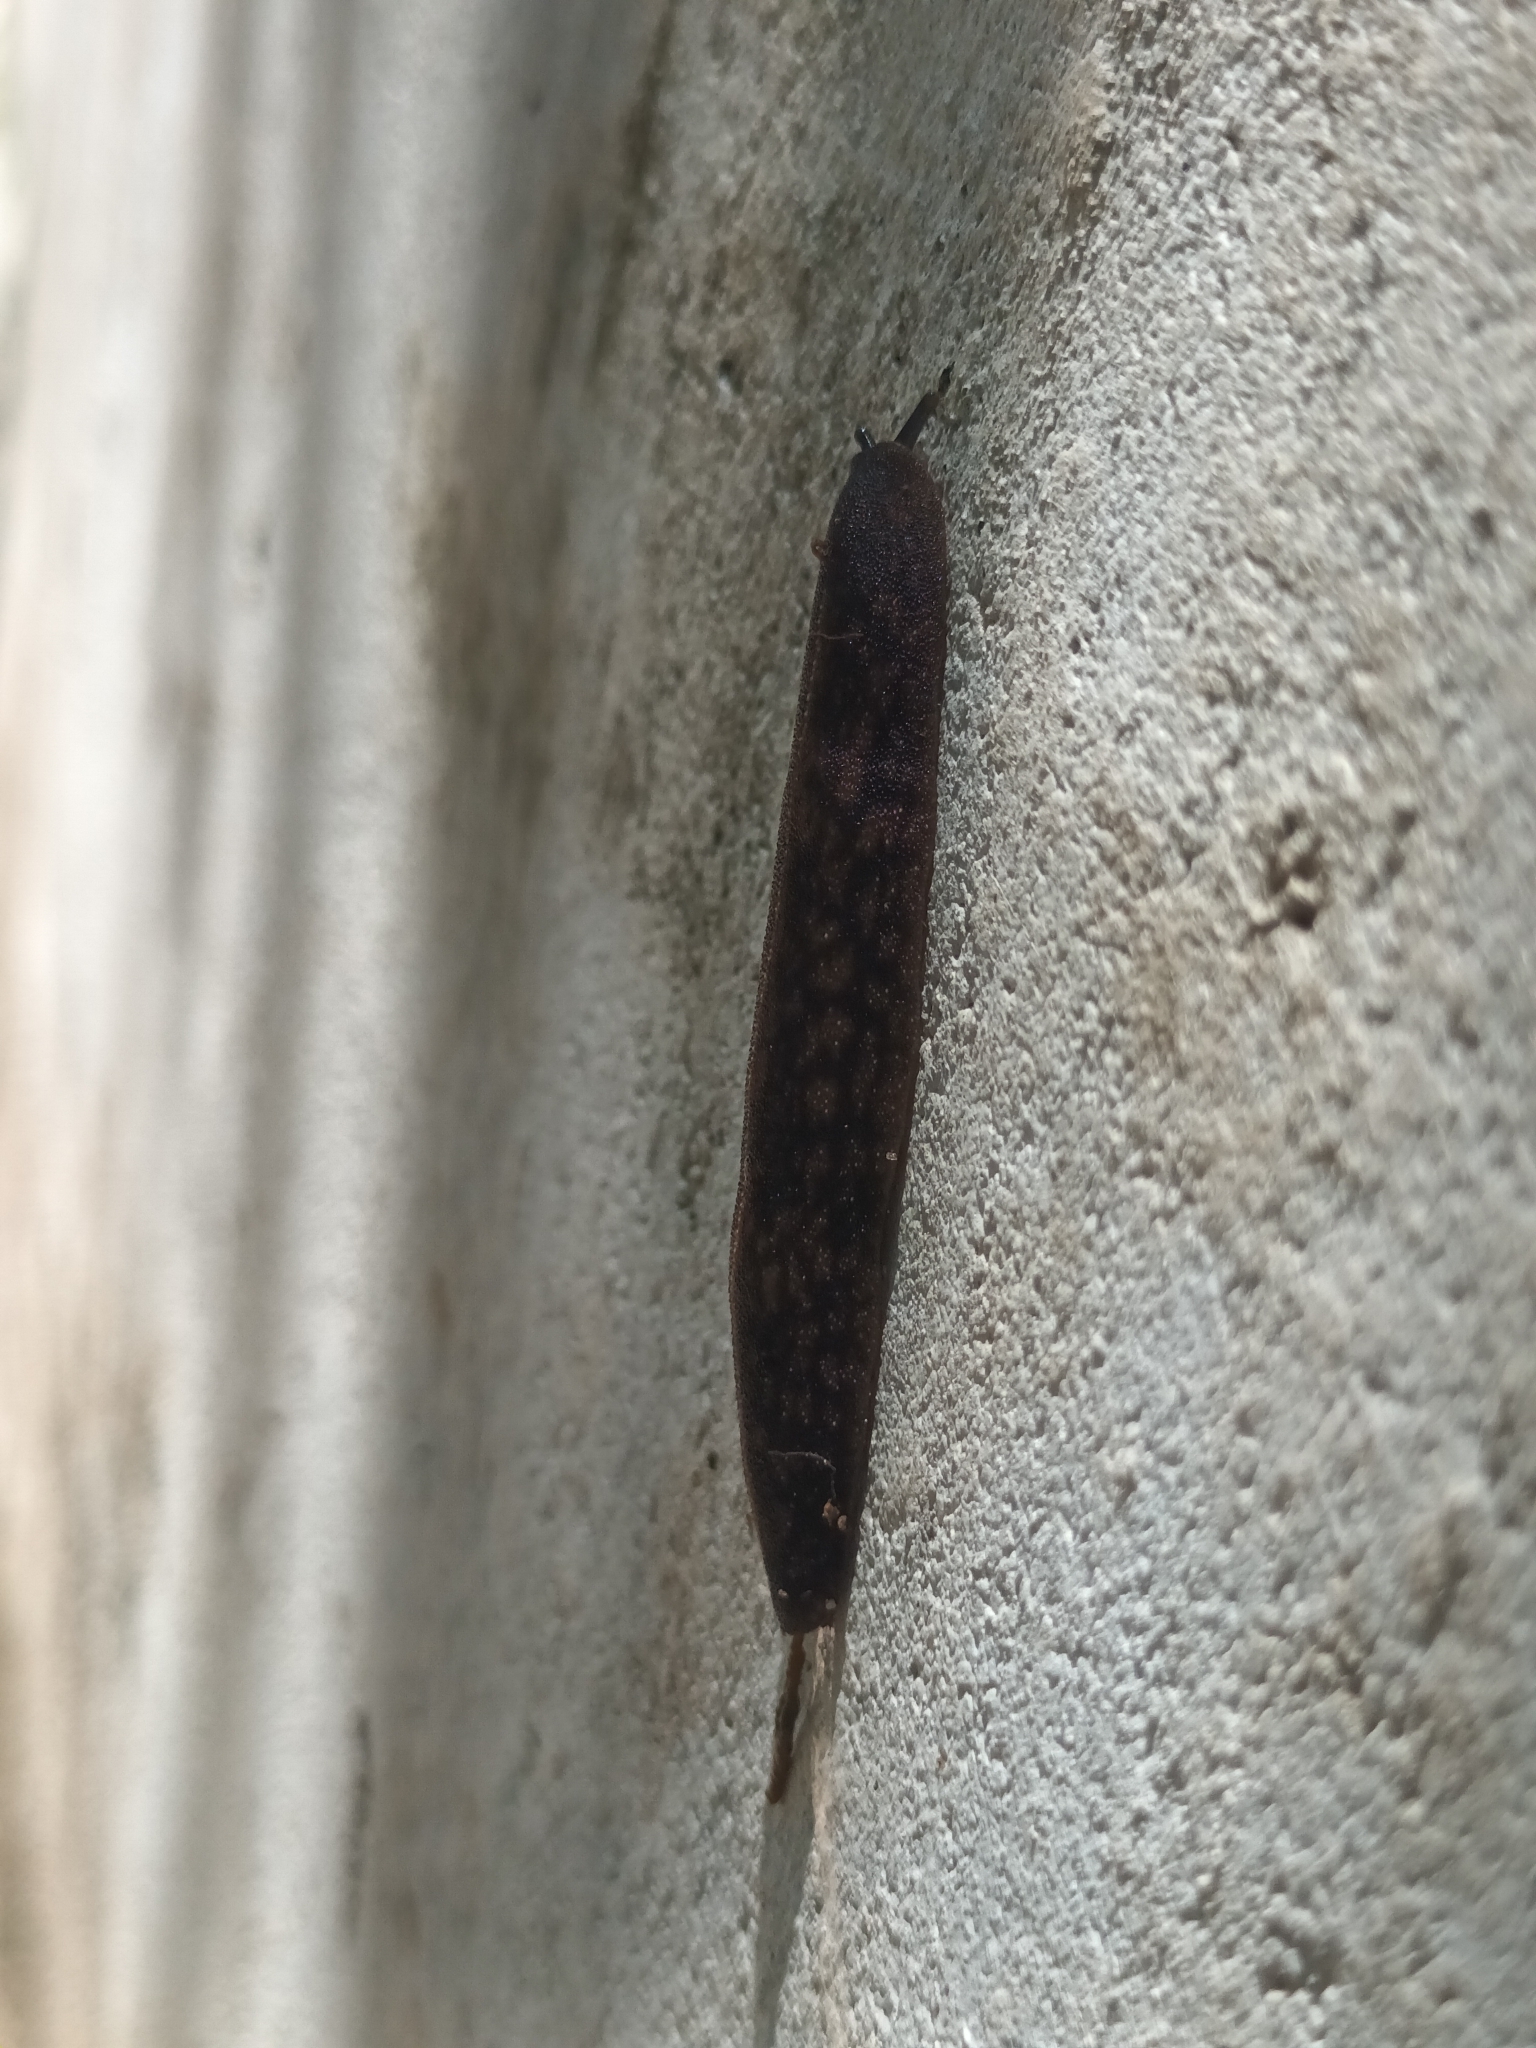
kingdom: Animalia
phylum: Mollusca
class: Gastropoda
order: Systellommatophora
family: Veronicellidae
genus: Laevicaulis
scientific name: Laevicaulis alte
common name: Tropical leatherleaf
